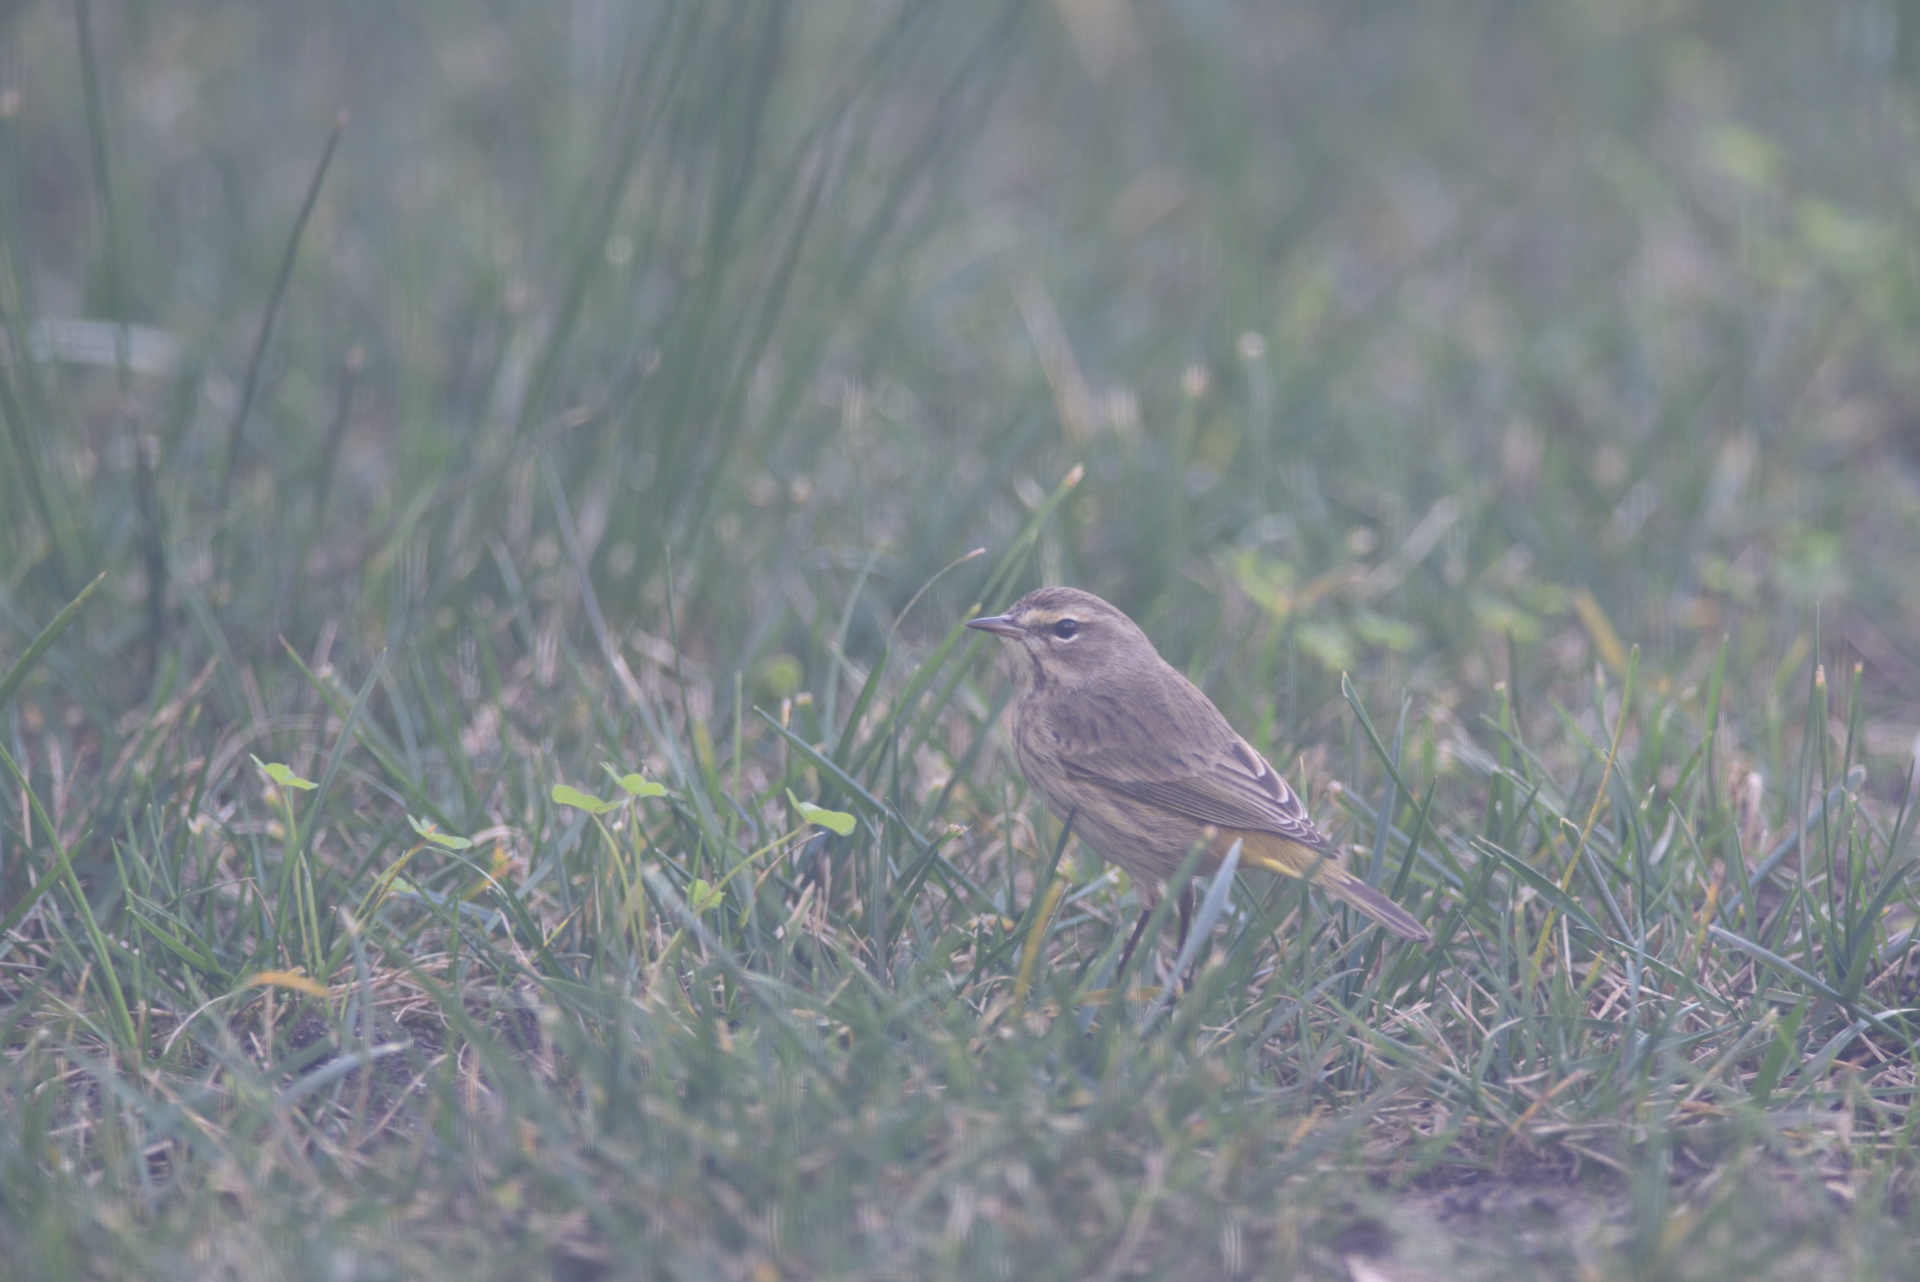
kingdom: Animalia
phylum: Chordata
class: Aves
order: Passeriformes
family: Parulidae
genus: Setophaga
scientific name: Setophaga palmarum
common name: Palm warbler
